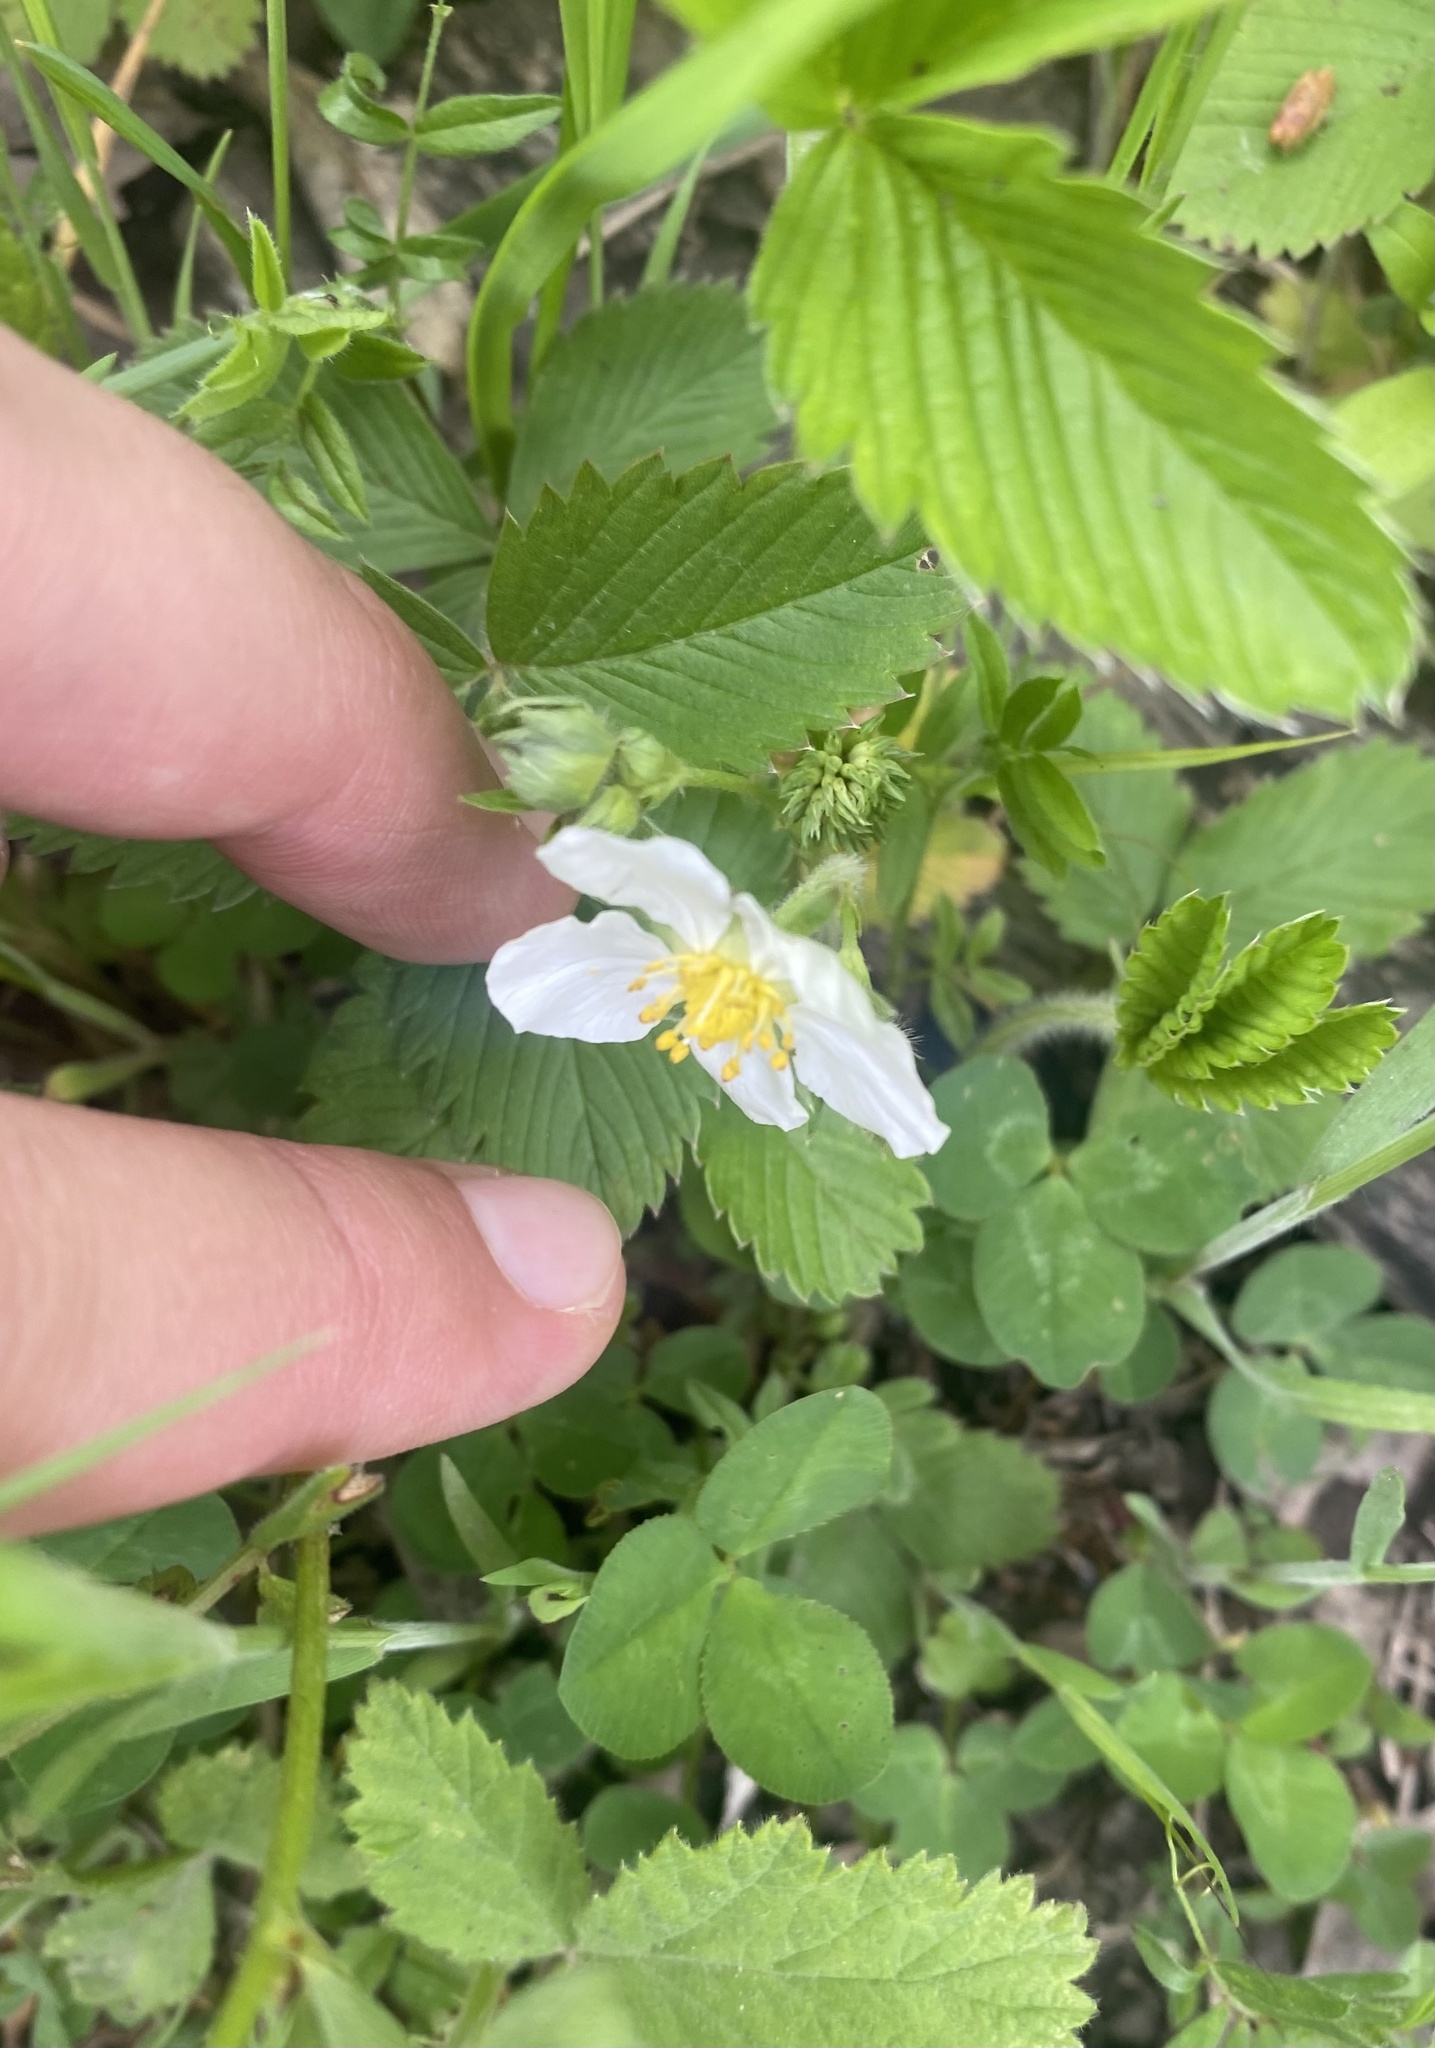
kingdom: Plantae
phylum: Tracheophyta
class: Magnoliopsida
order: Rosales
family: Rosaceae
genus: Fragaria
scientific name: Fragaria viridis
